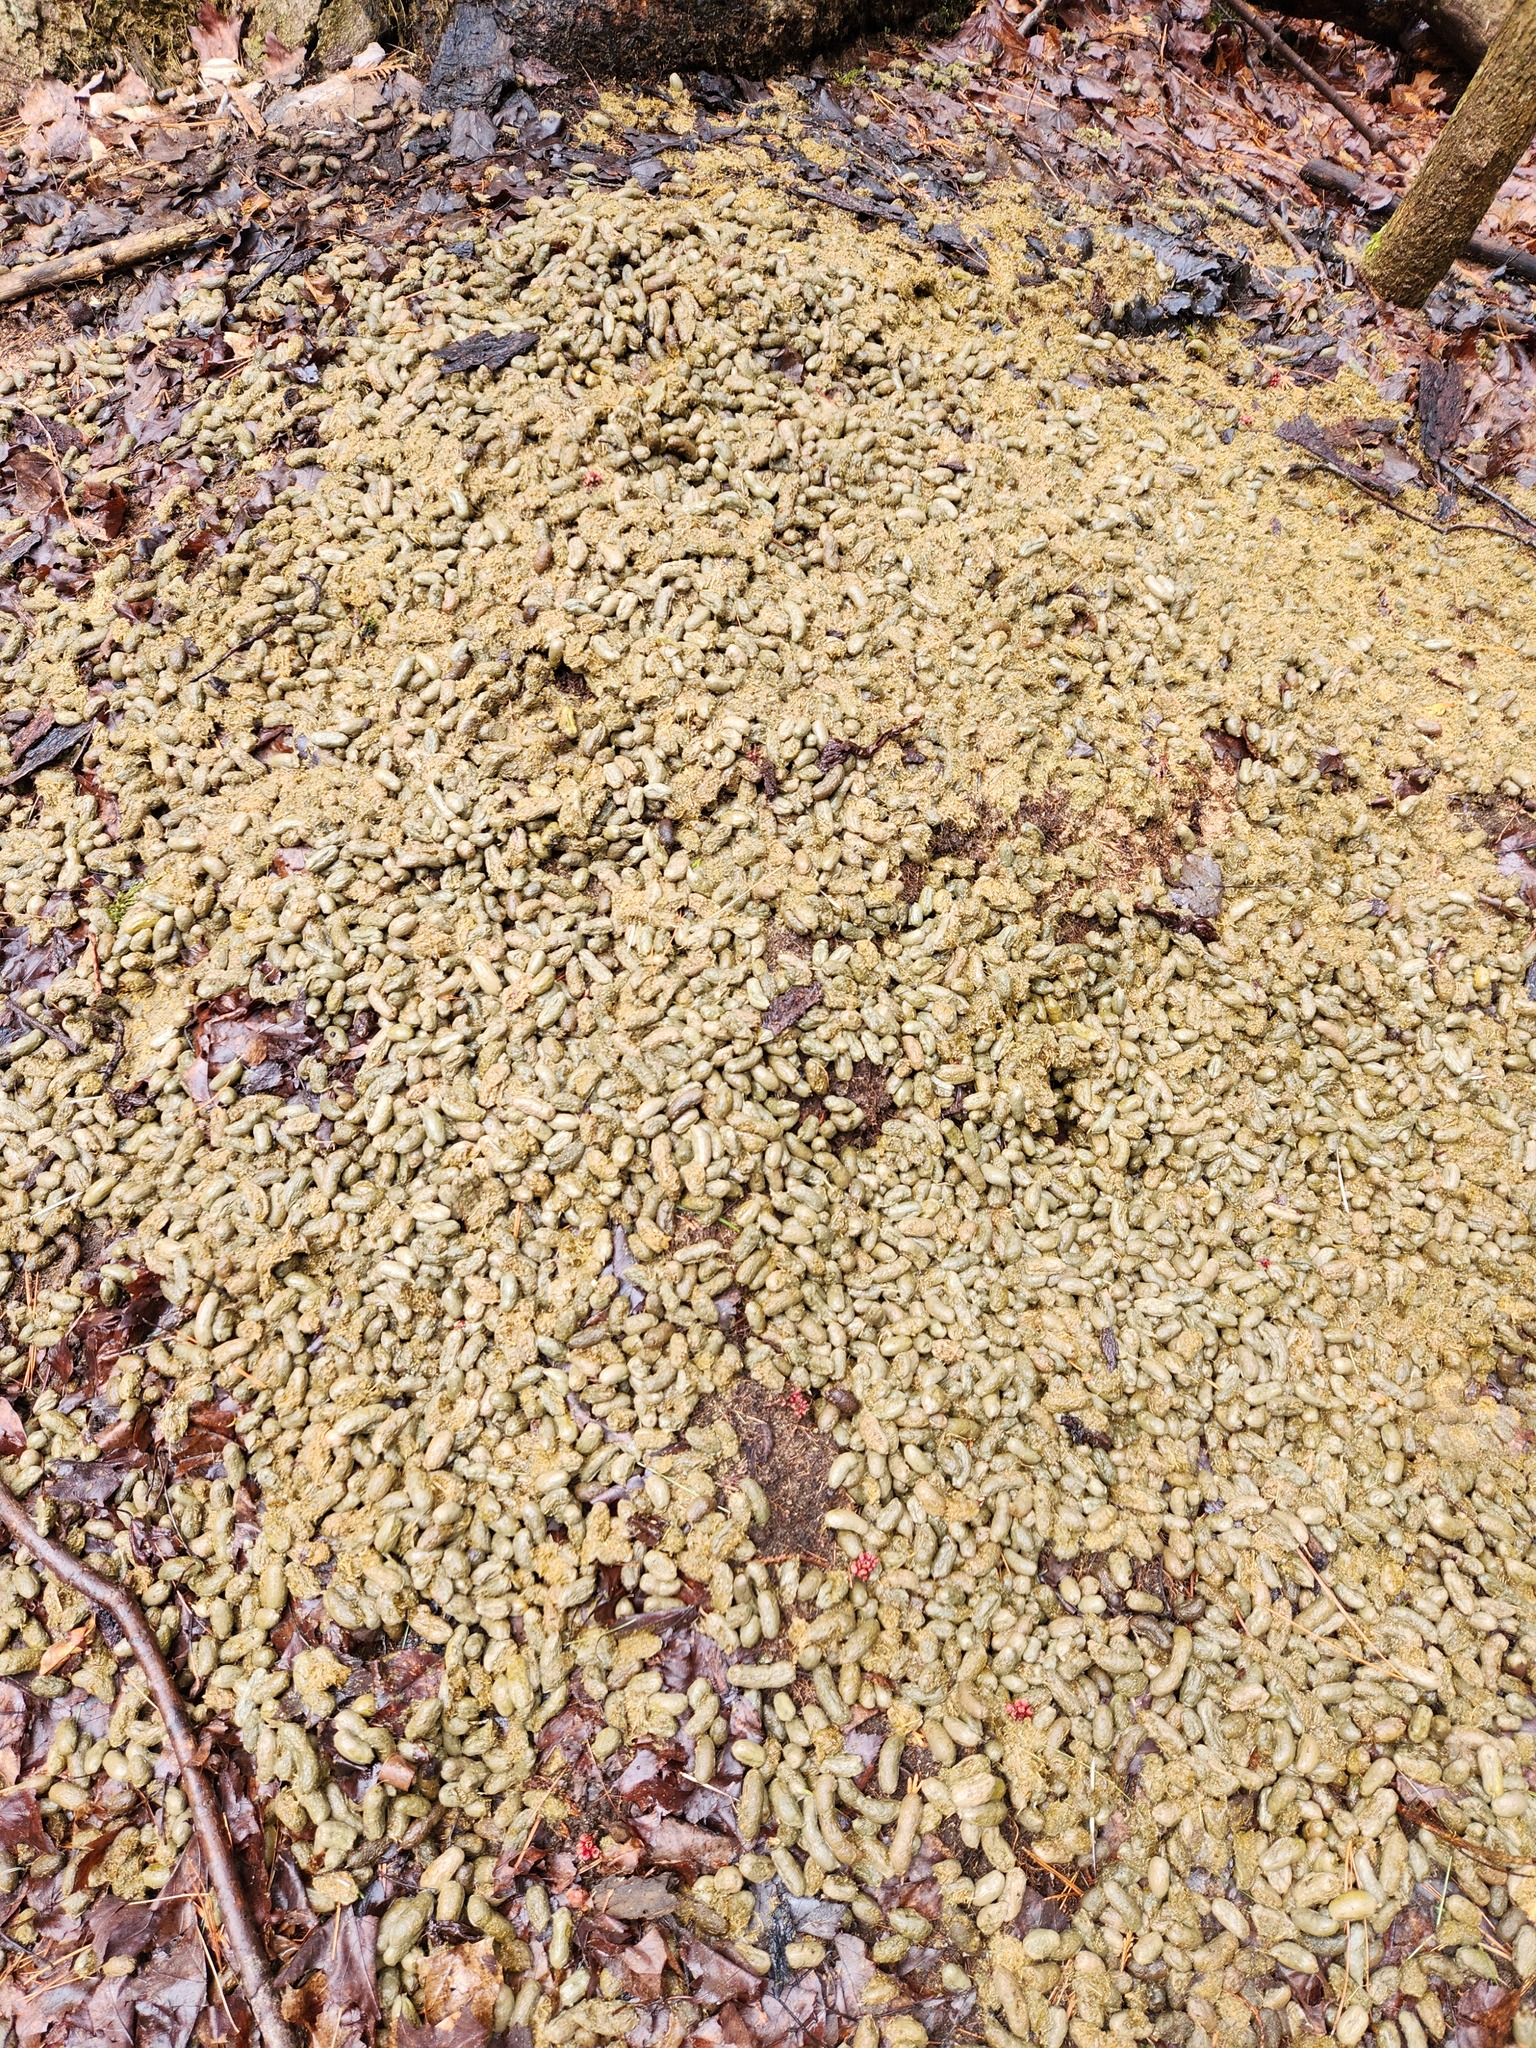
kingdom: Animalia
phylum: Chordata
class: Mammalia
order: Rodentia
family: Erethizontidae
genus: Erethizon
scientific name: Erethizon dorsatus
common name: North american porcupine
